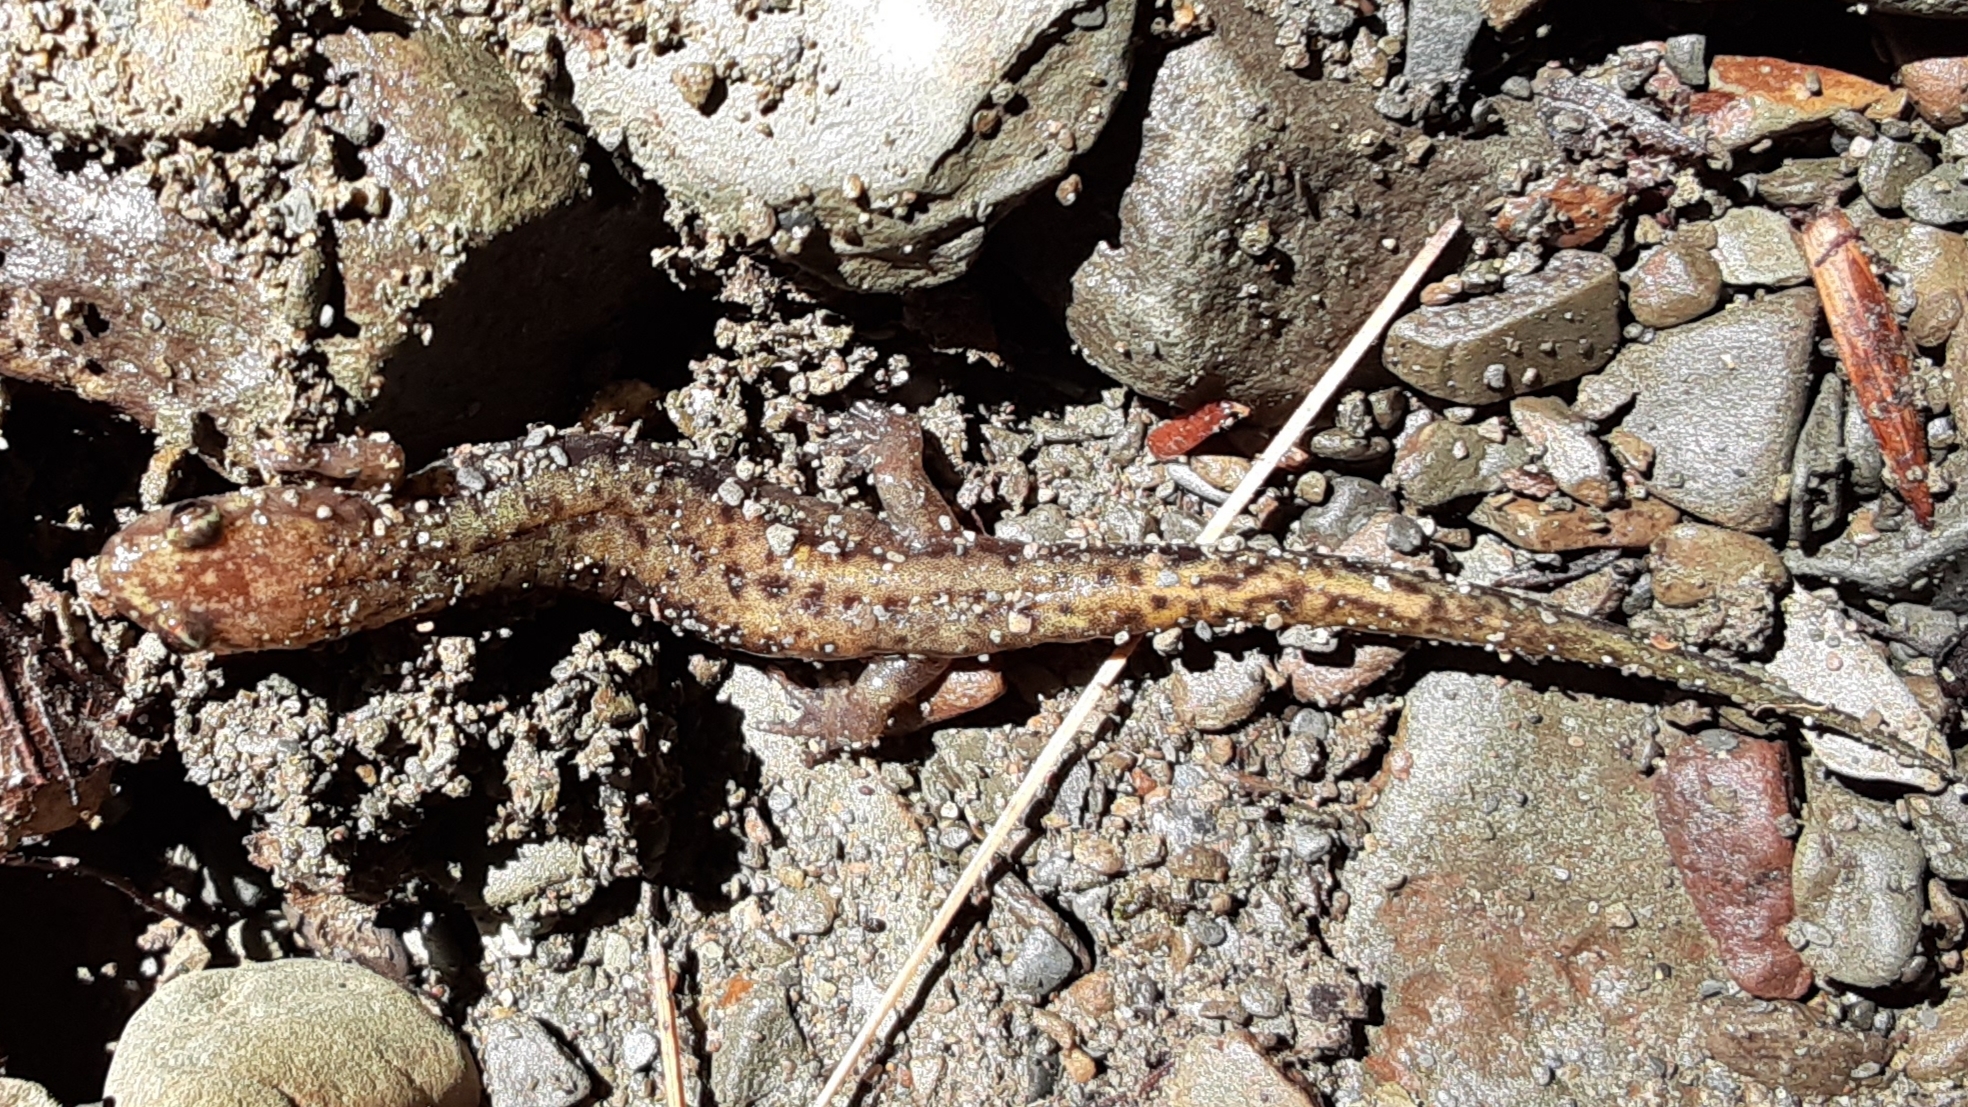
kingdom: Animalia
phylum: Chordata
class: Amphibia
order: Caudata
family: Plethodontidae
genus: Desmognathus
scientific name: Desmognathus ochrophaeus
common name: Allegheny mountain dusky salamander
